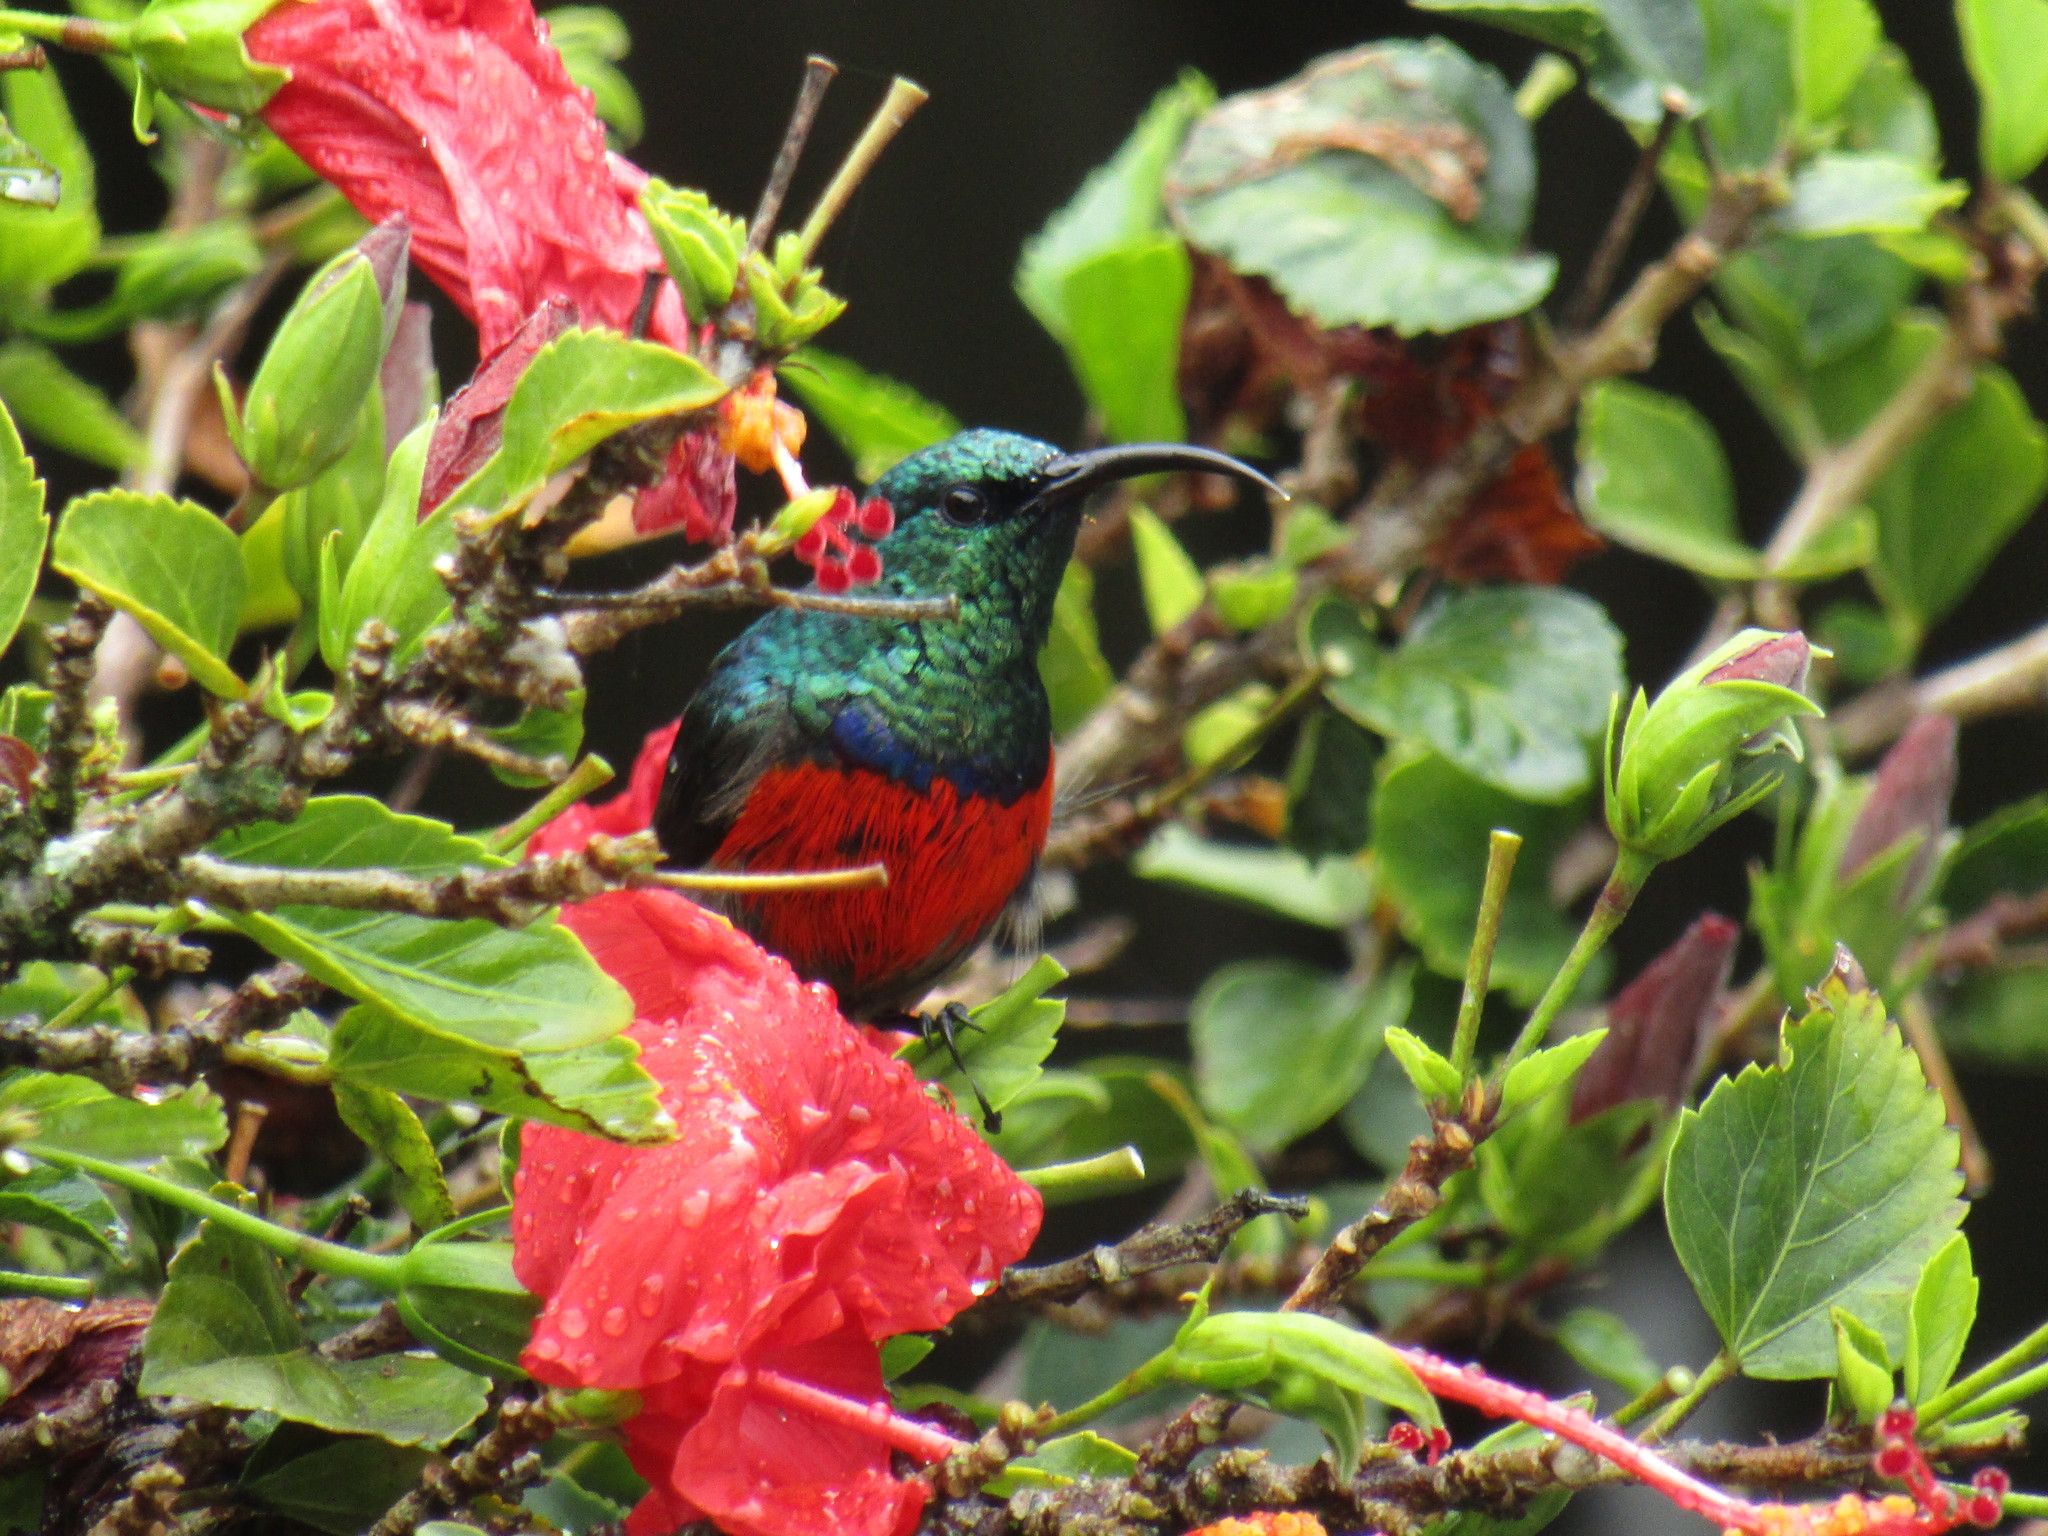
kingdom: Animalia
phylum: Chordata
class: Aves
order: Passeriformes
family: Nectariniidae
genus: Cinnyris
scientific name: Cinnyris afer
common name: Greater double-collared sunbird
